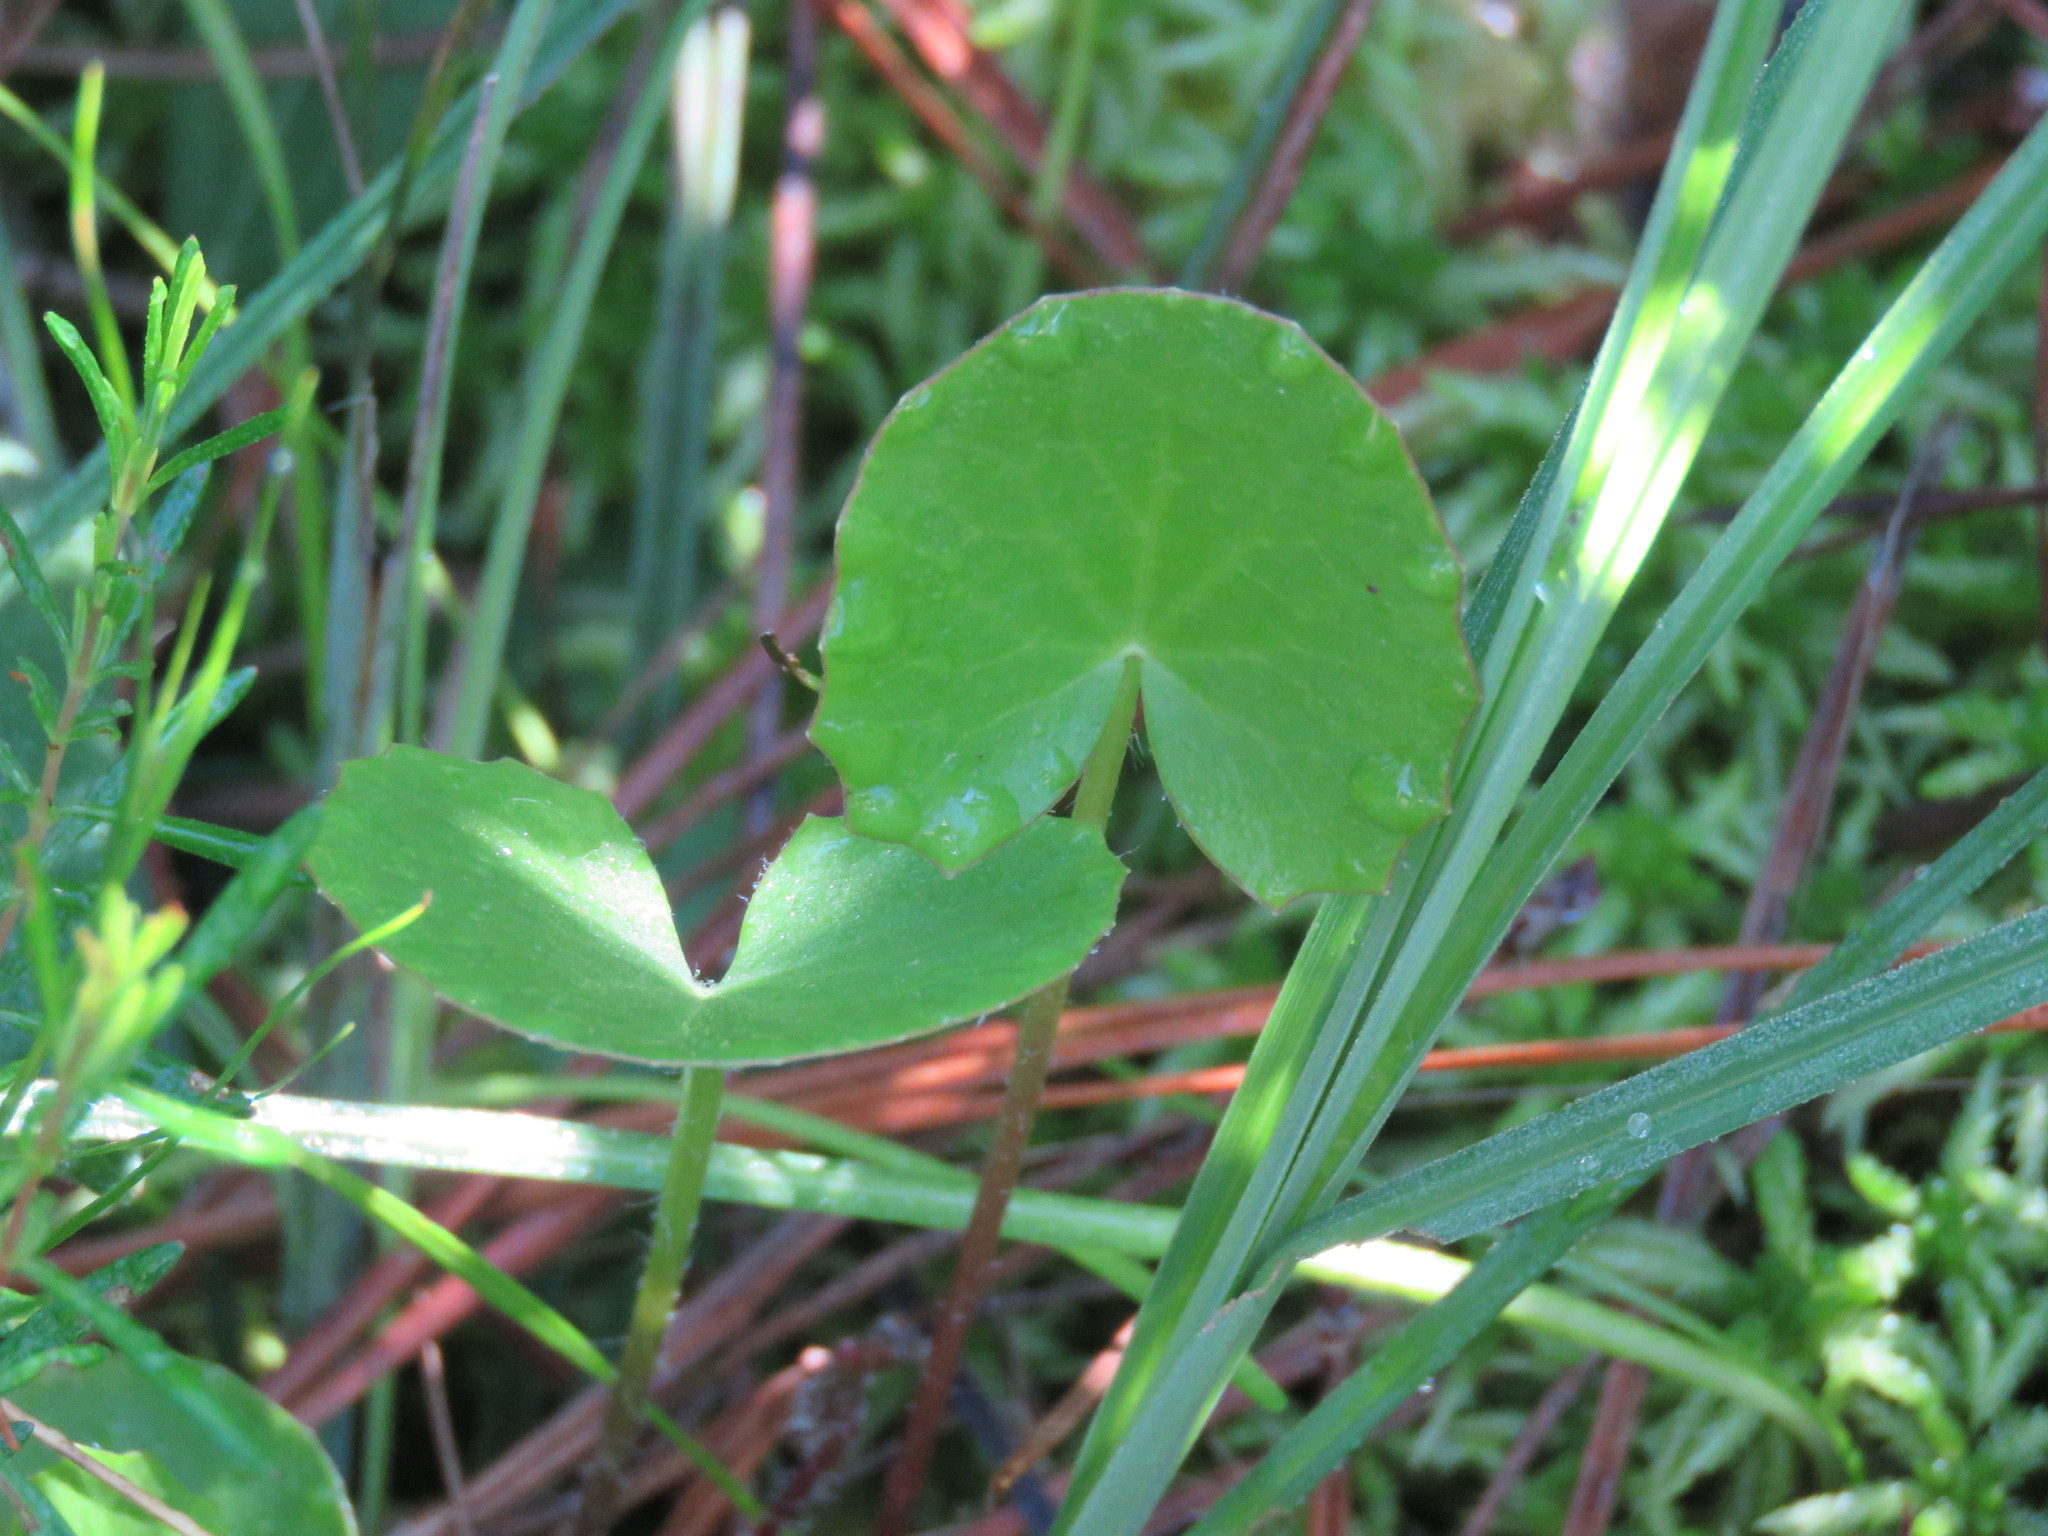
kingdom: Plantae
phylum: Tracheophyta
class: Magnoliopsida
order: Apiales
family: Apiaceae
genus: Centella
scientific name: Centella erecta
